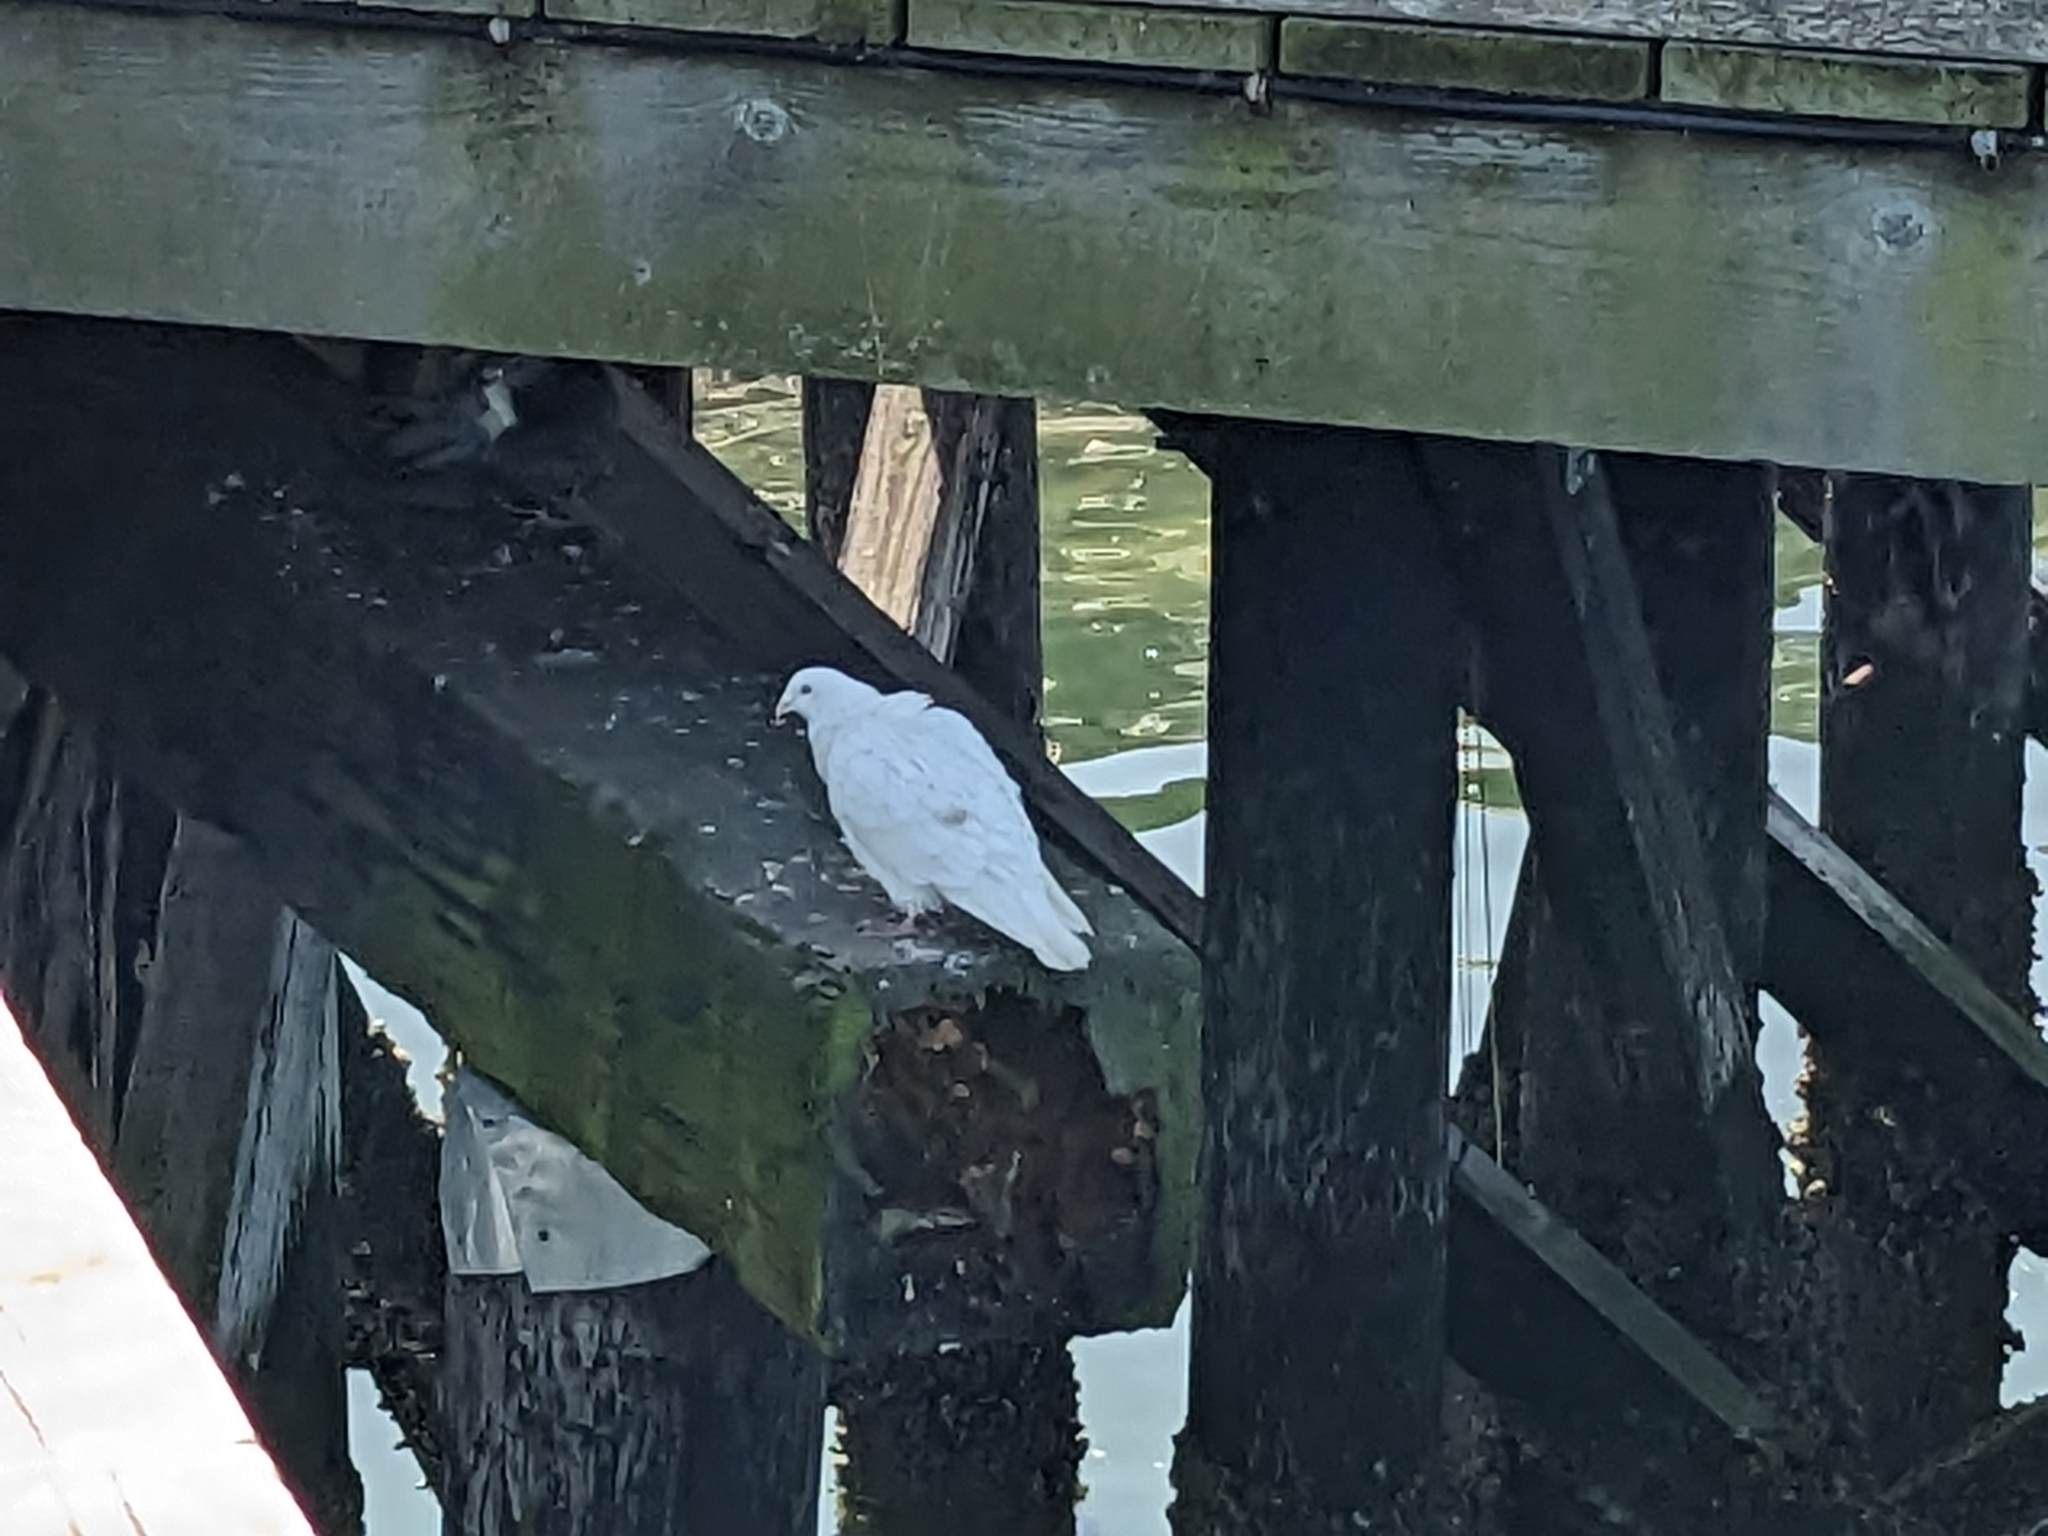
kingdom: Animalia
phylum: Chordata
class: Aves
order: Columbiformes
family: Columbidae
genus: Columba
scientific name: Columba livia
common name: Rock pigeon
